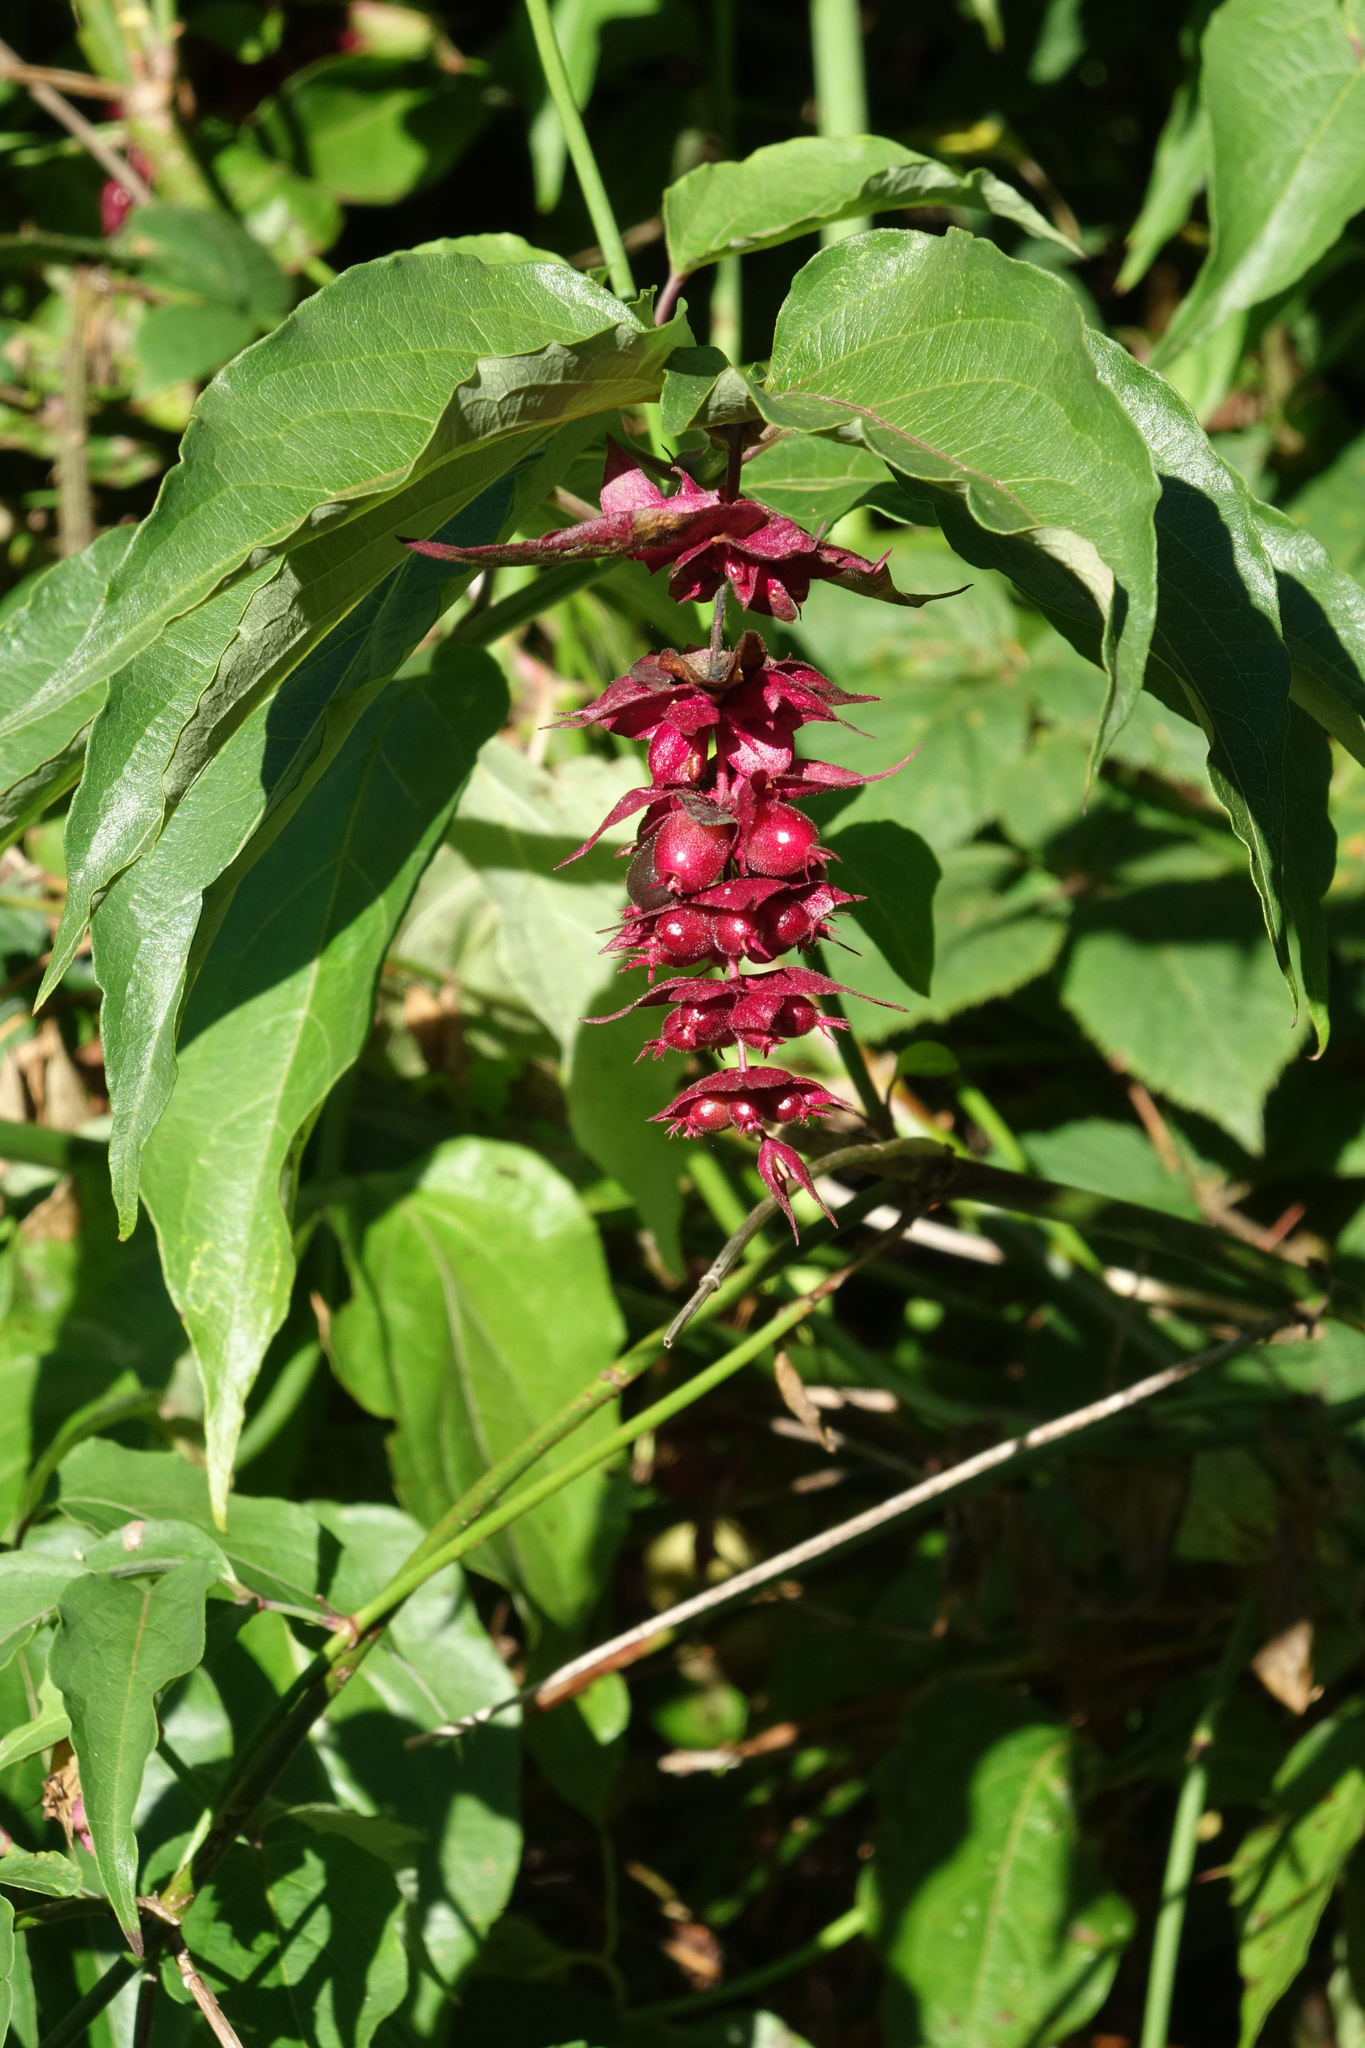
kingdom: Plantae
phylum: Tracheophyta
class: Magnoliopsida
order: Dipsacales
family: Caprifoliaceae
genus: Leycesteria
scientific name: Leycesteria formosa
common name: Himalayan honeysuckle
